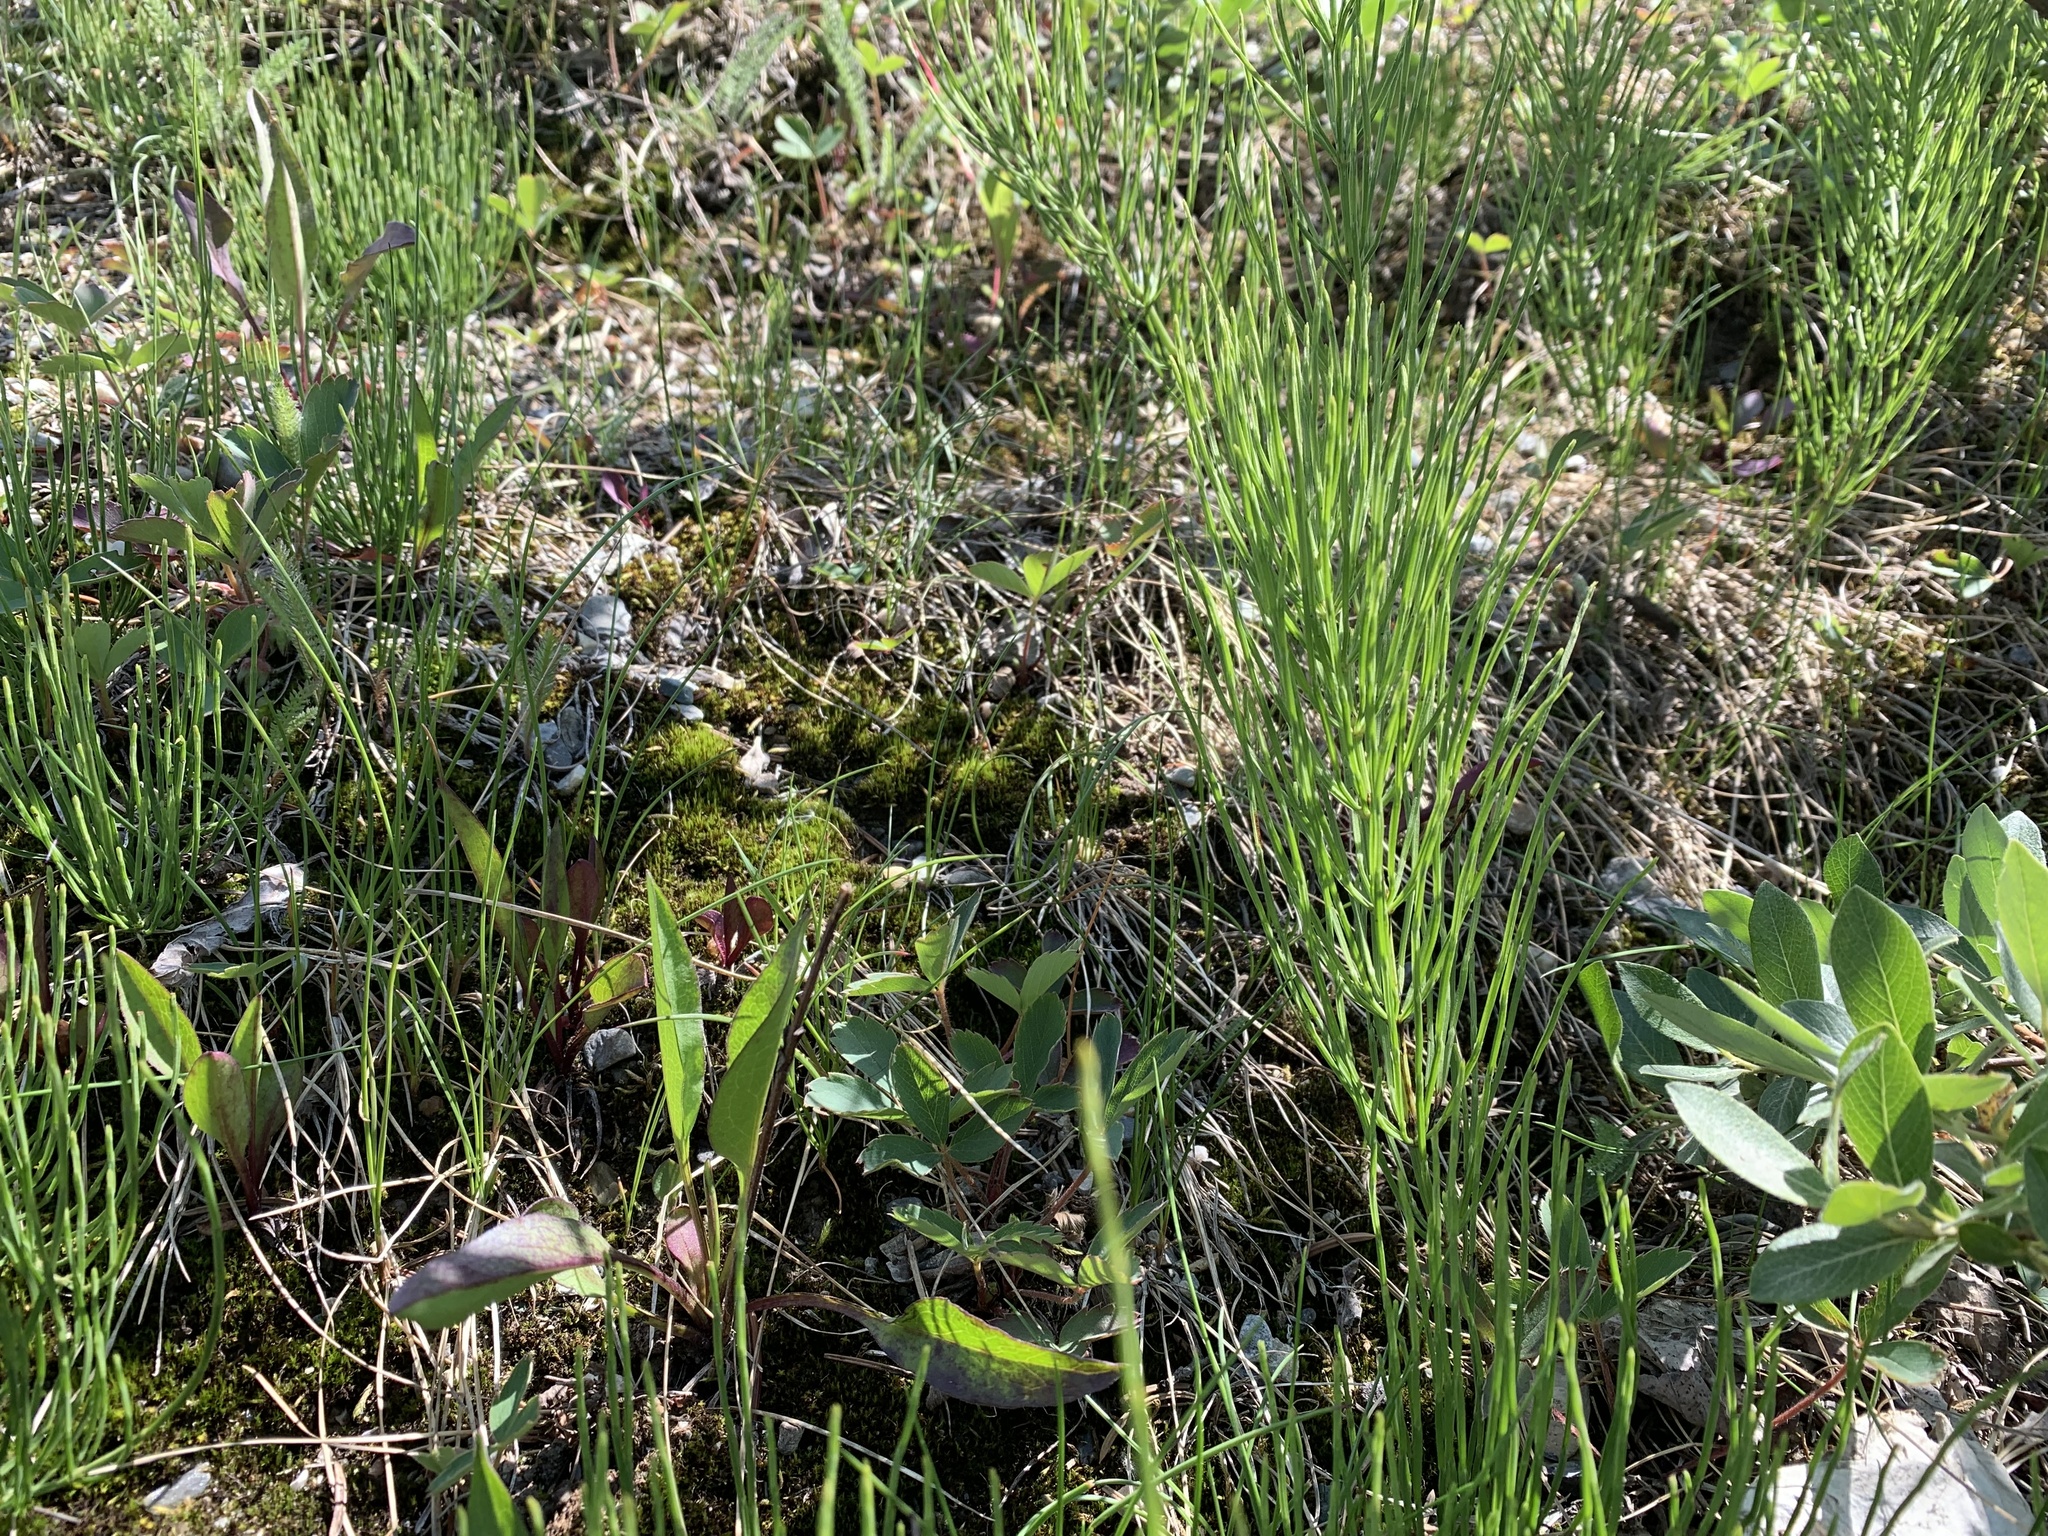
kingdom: Plantae
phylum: Tracheophyta
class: Polypodiopsida
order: Equisetales
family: Equisetaceae
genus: Equisetum
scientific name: Equisetum arvense
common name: Field horsetail
